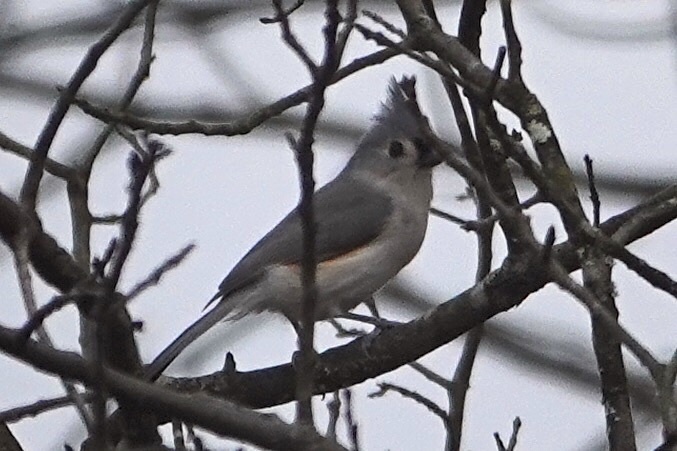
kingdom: Animalia
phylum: Chordata
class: Aves
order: Passeriformes
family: Paridae
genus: Baeolophus
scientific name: Baeolophus bicolor
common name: Tufted titmouse
